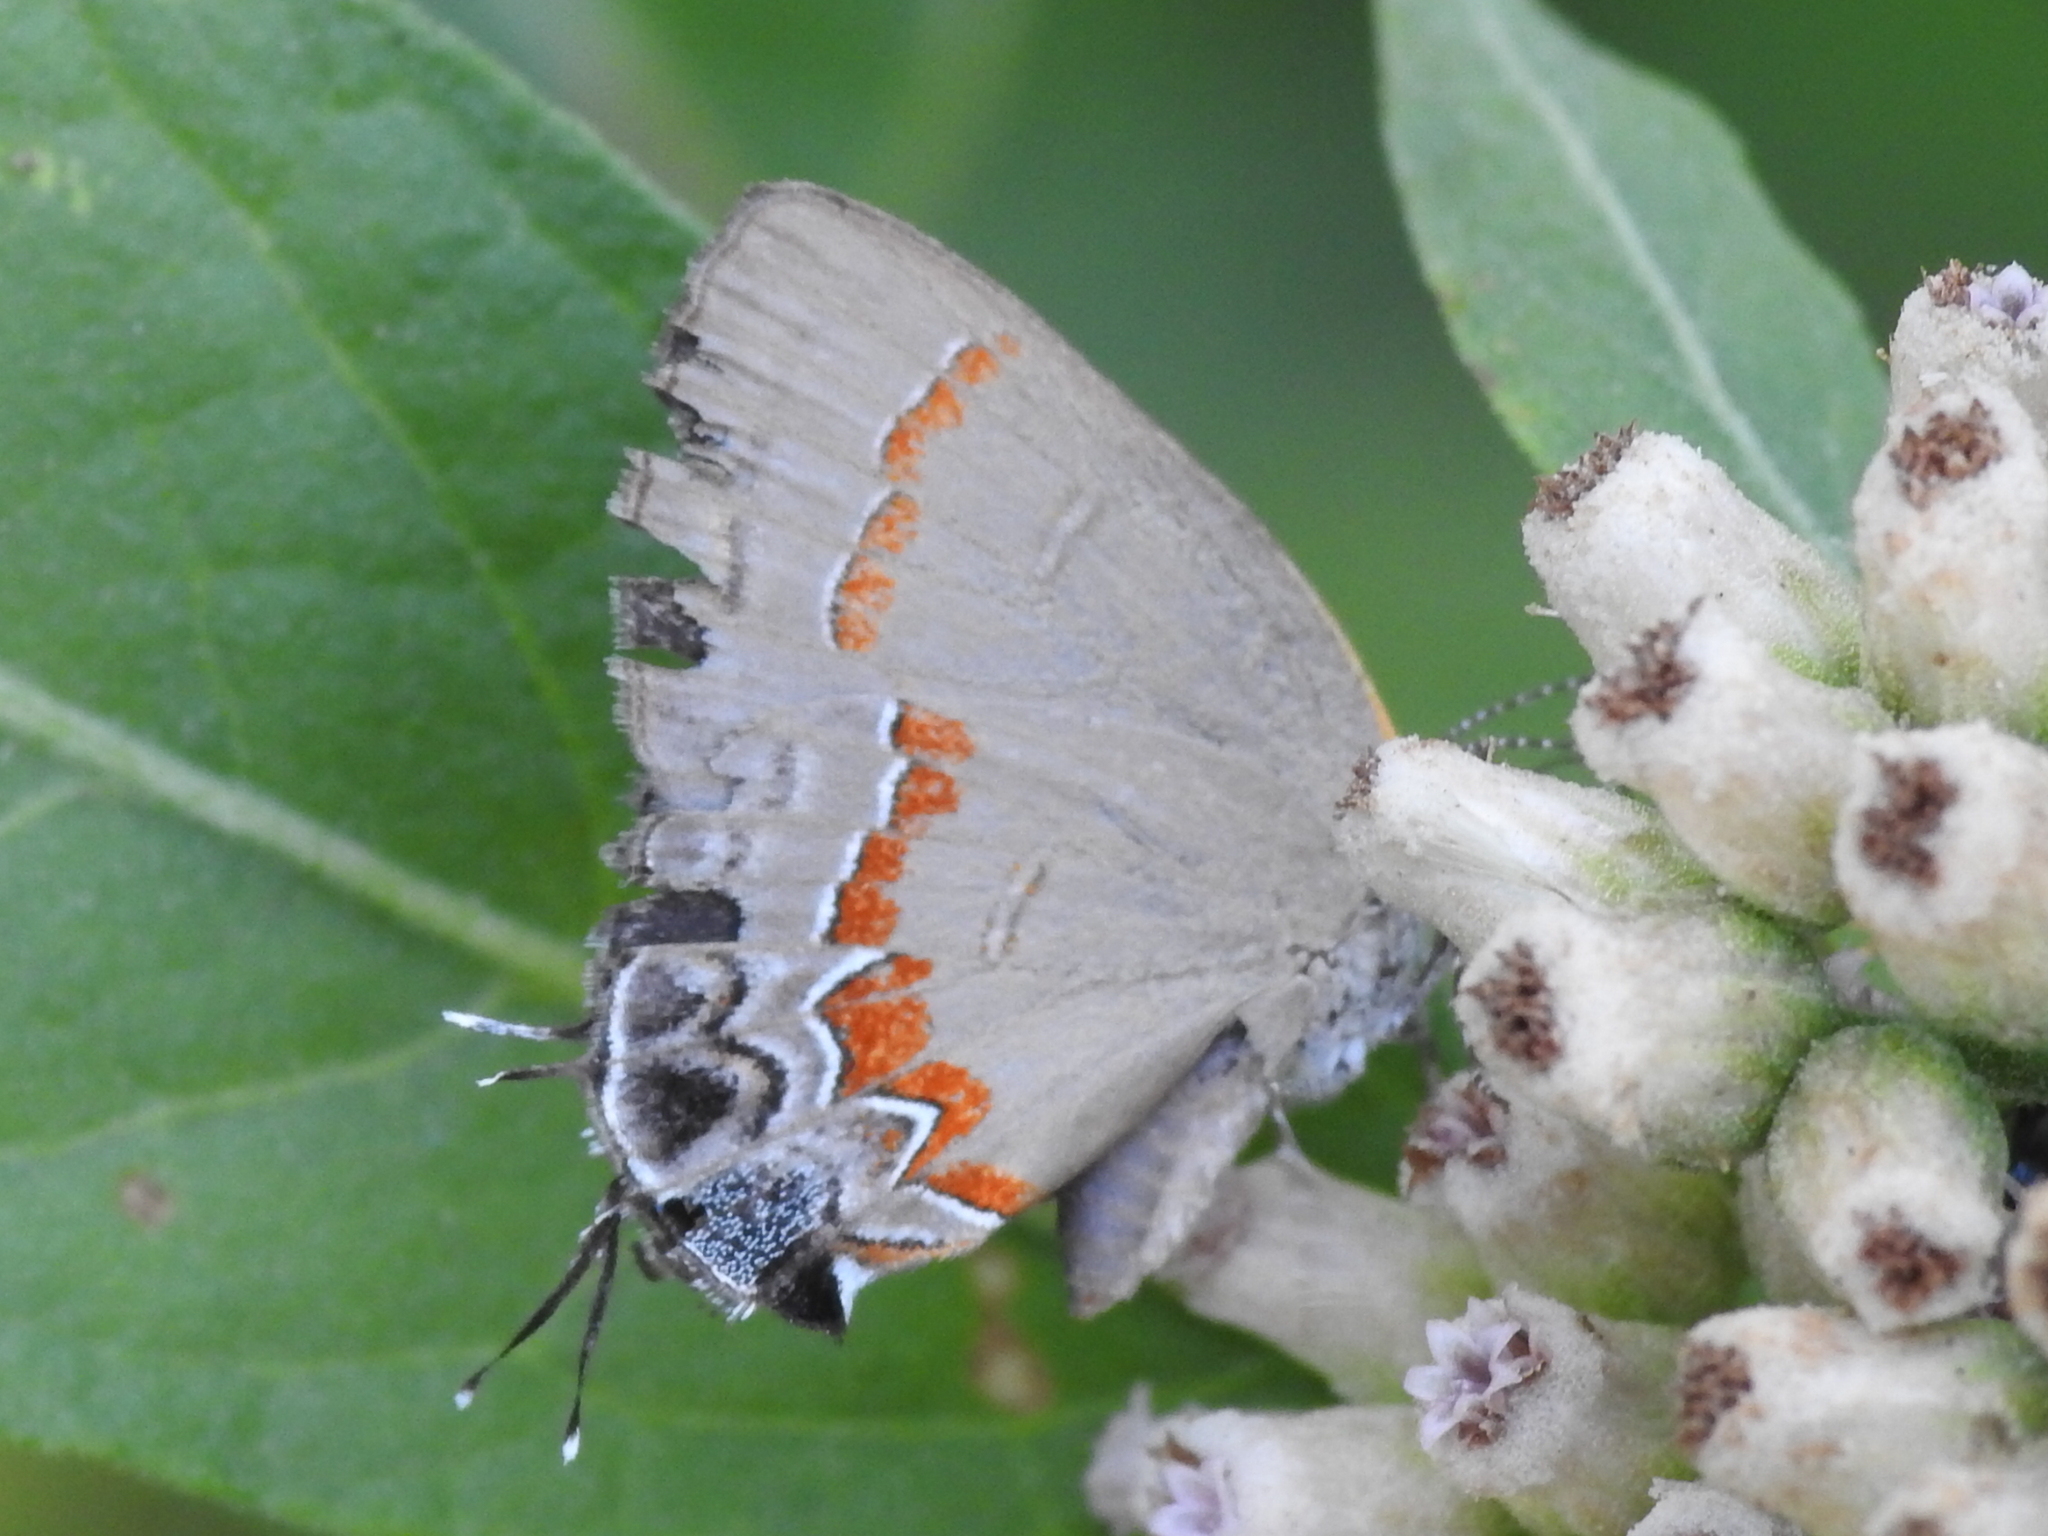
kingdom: Animalia
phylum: Arthropoda
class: Insecta
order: Lepidoptera
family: Lycaenidae
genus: Calycopis
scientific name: Calycopis cecrops
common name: Red-banded hairstreak
